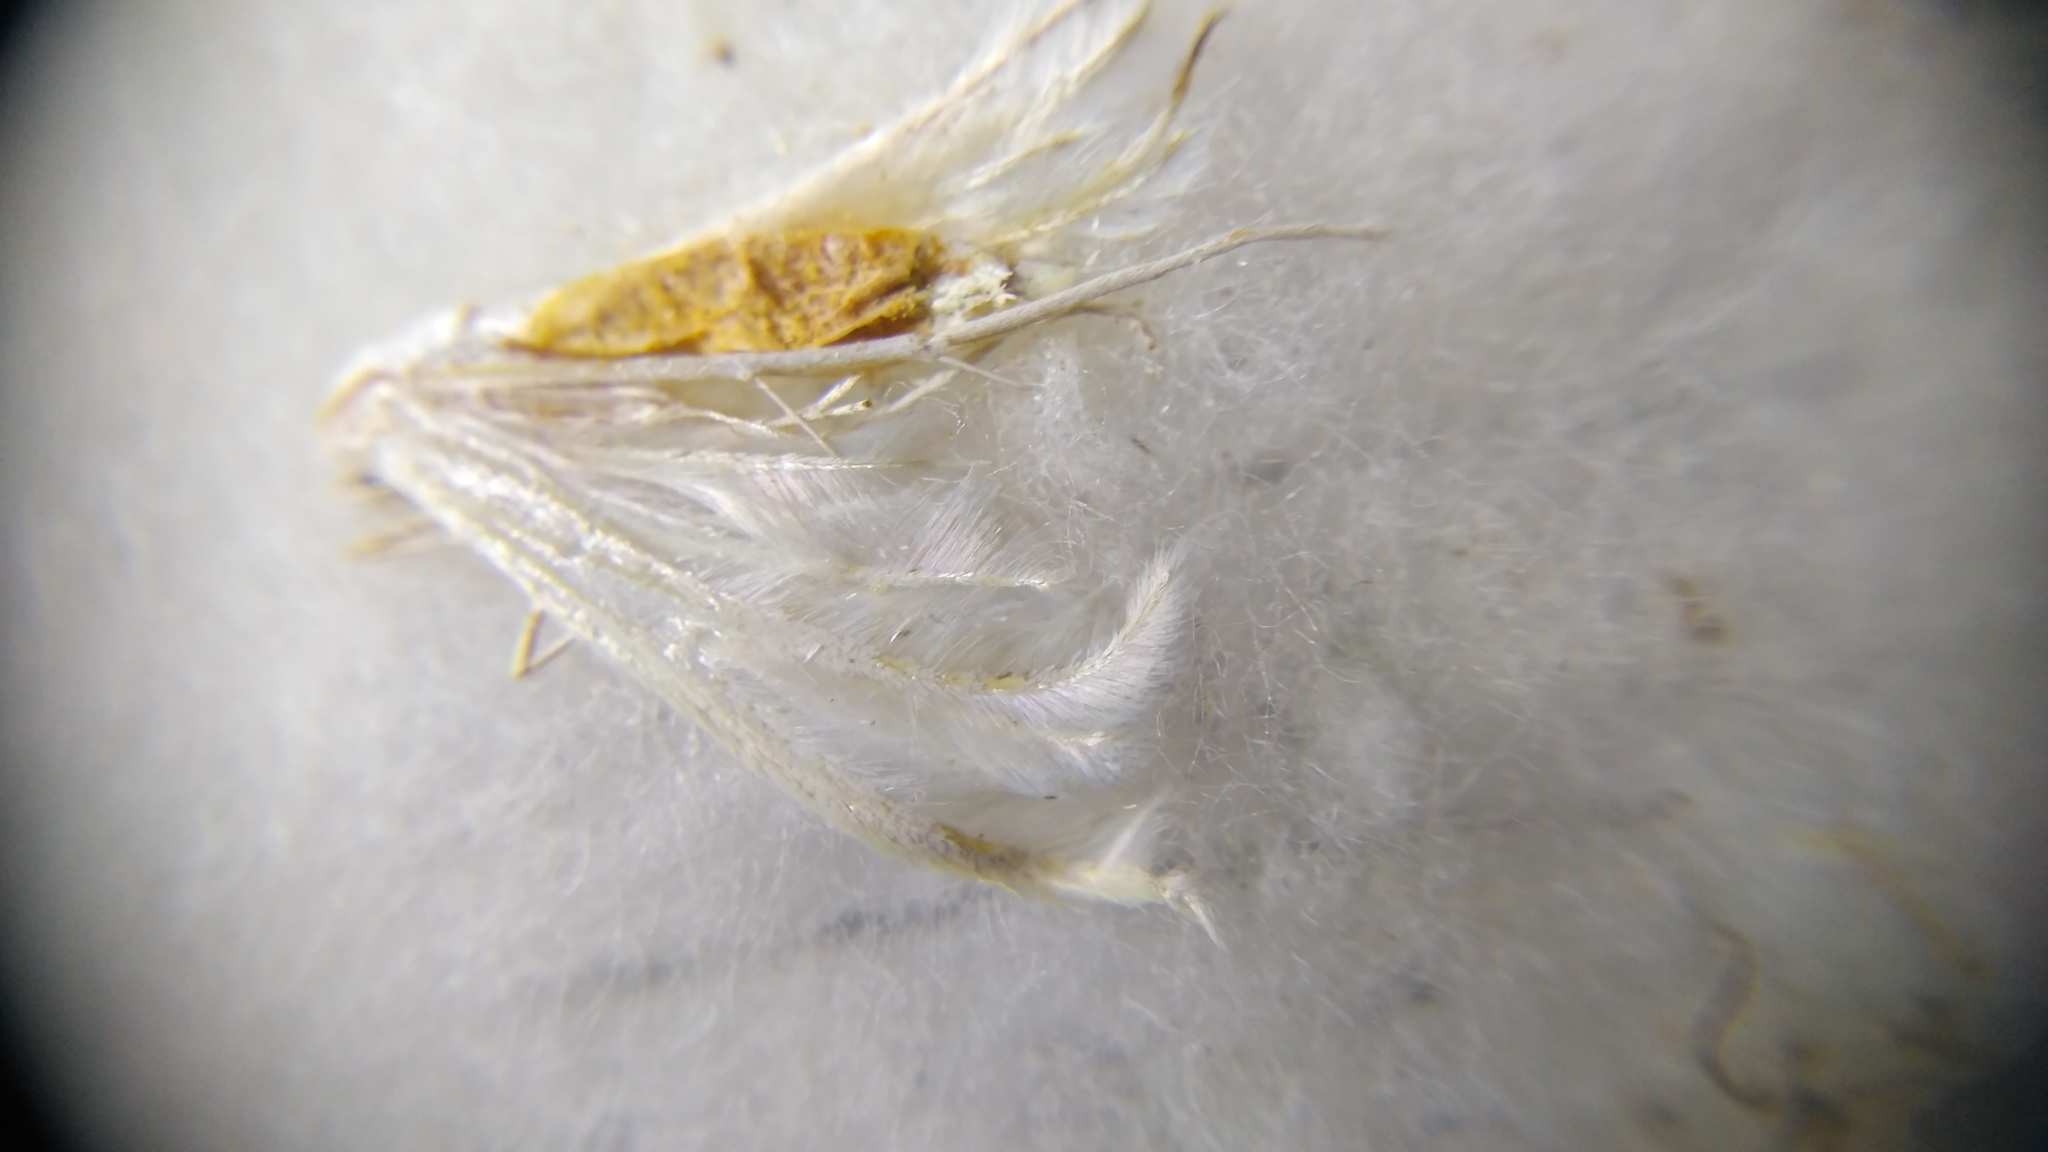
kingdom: Animalia
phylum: Arthropoda
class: Insecta
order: Lepidoptera
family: Pterophoridae
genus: Pterophorus
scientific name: Pterophorus pentadactyla
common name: White plume moth
